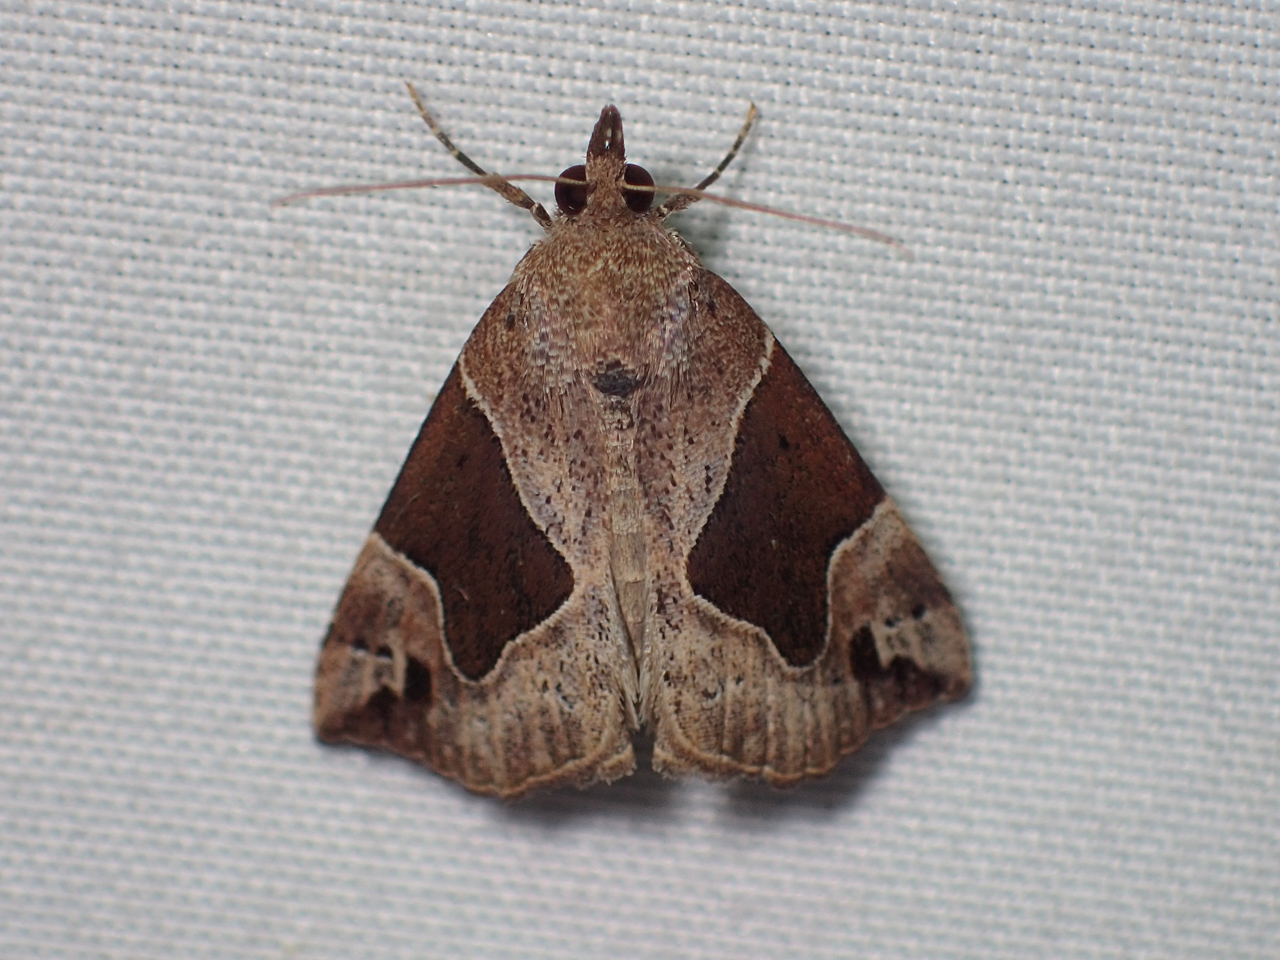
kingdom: Animalia
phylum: Arthropoda
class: Insecta
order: Lepidoptera
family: Erebidae
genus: Hypena
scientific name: Hypena manalis
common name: Flowing-line bomolocha moth
